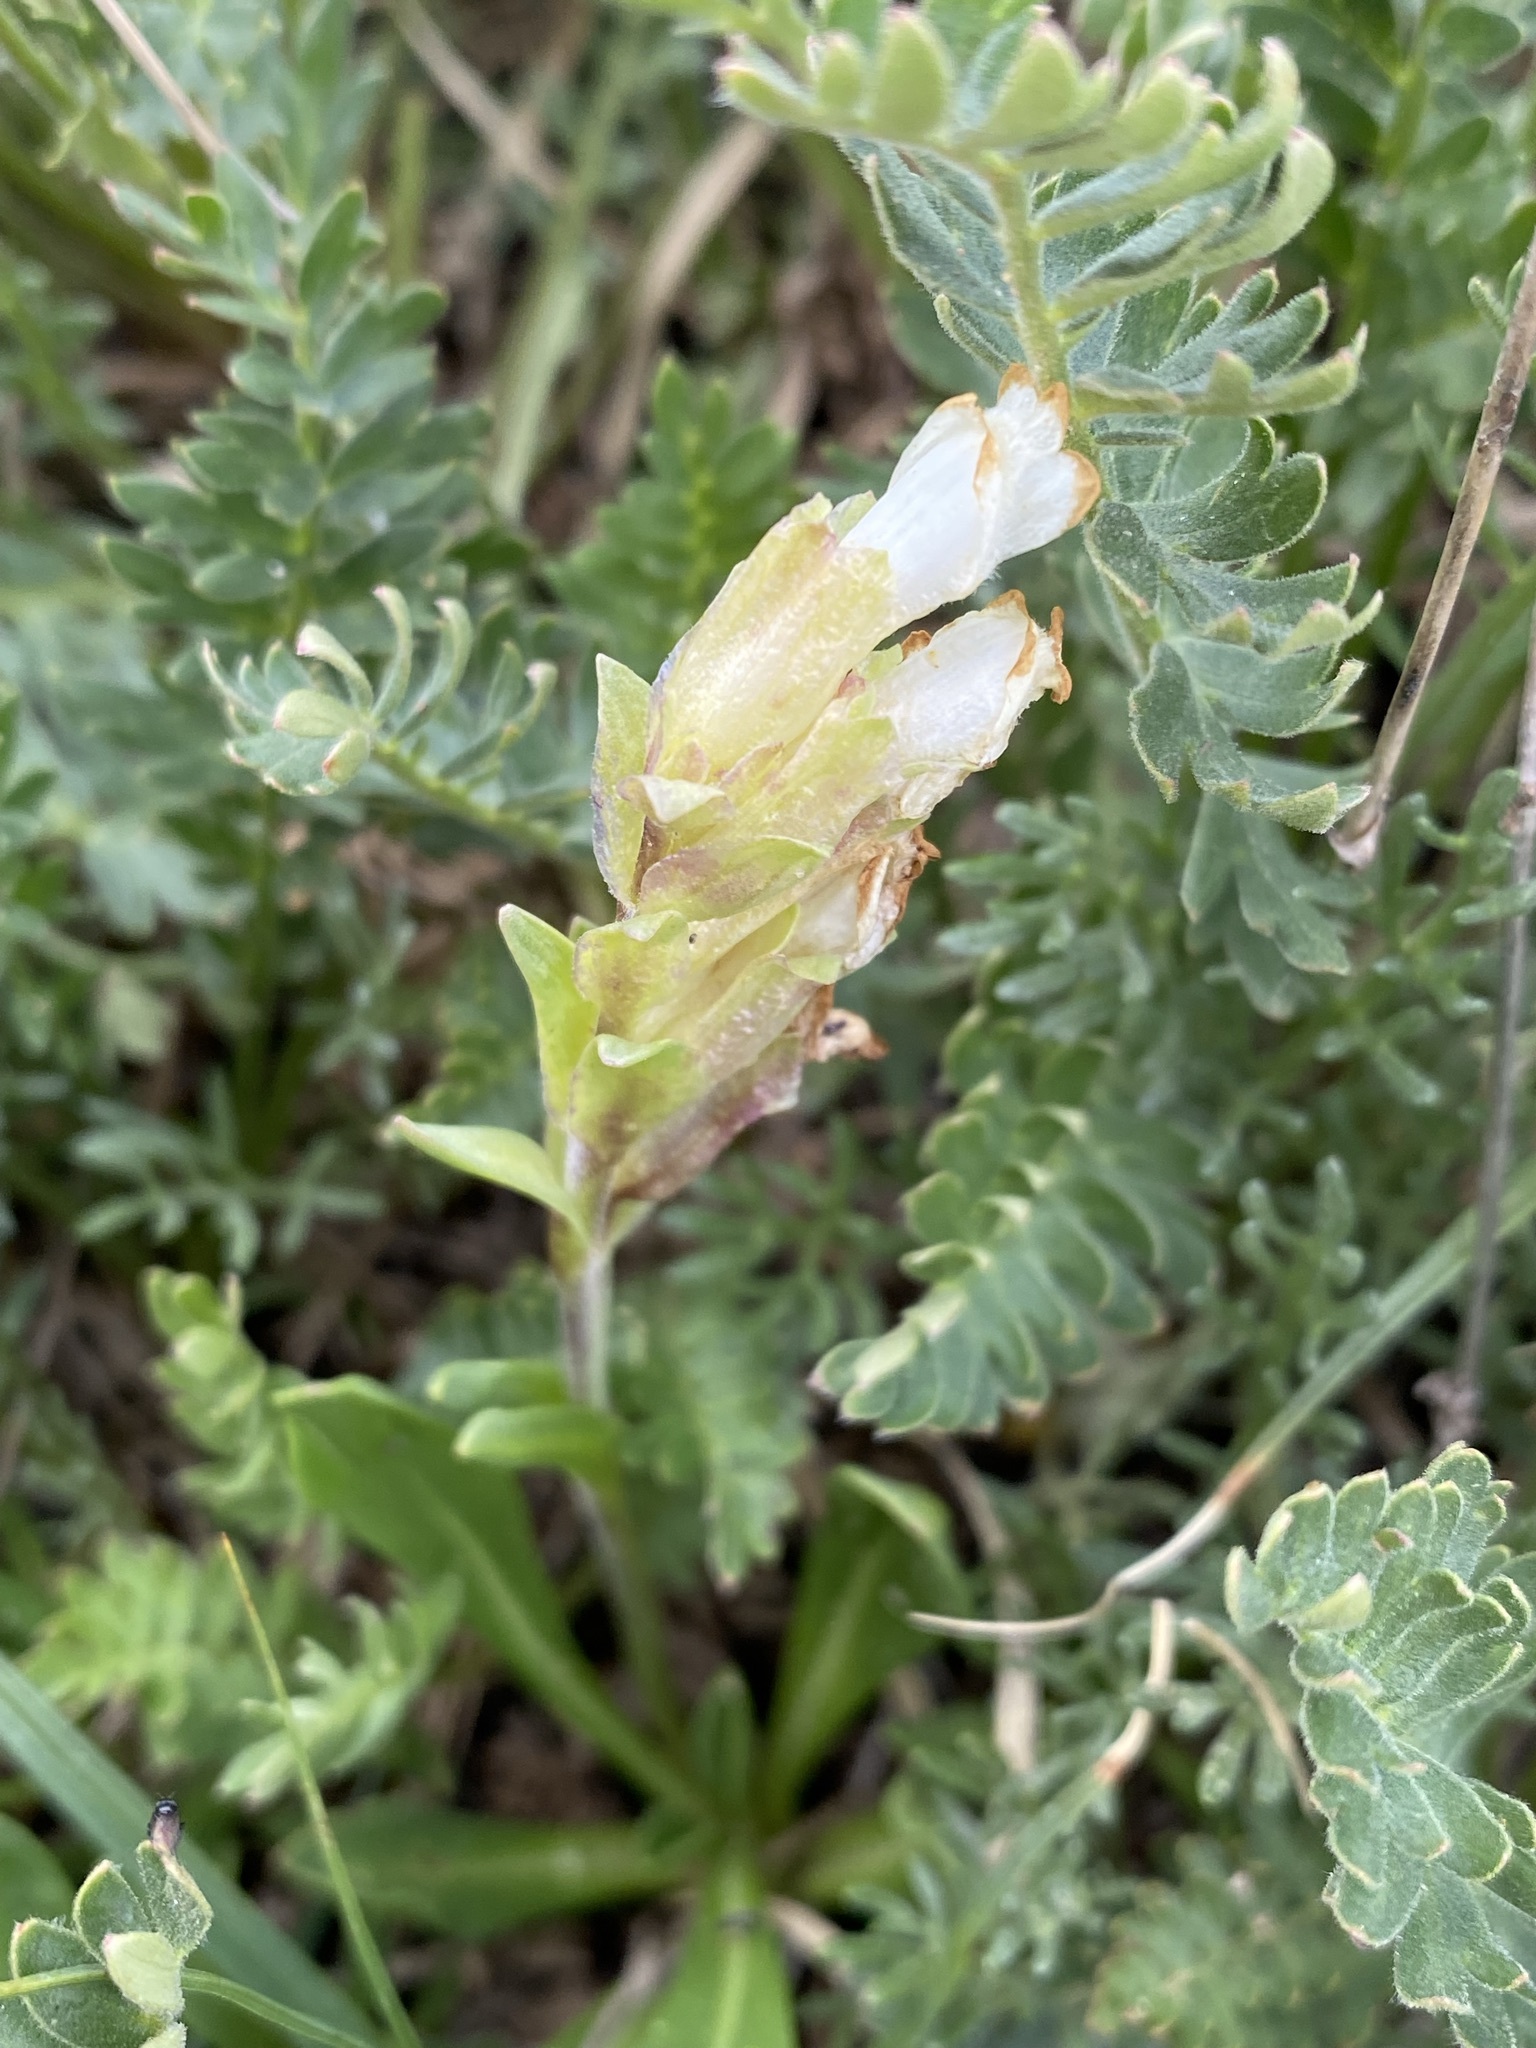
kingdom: Plantae
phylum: Tracheophyta
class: Magnoliopsida
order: Lamiales
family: Plantaginaceae
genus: Chionophila
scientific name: Chionophila jamesii
